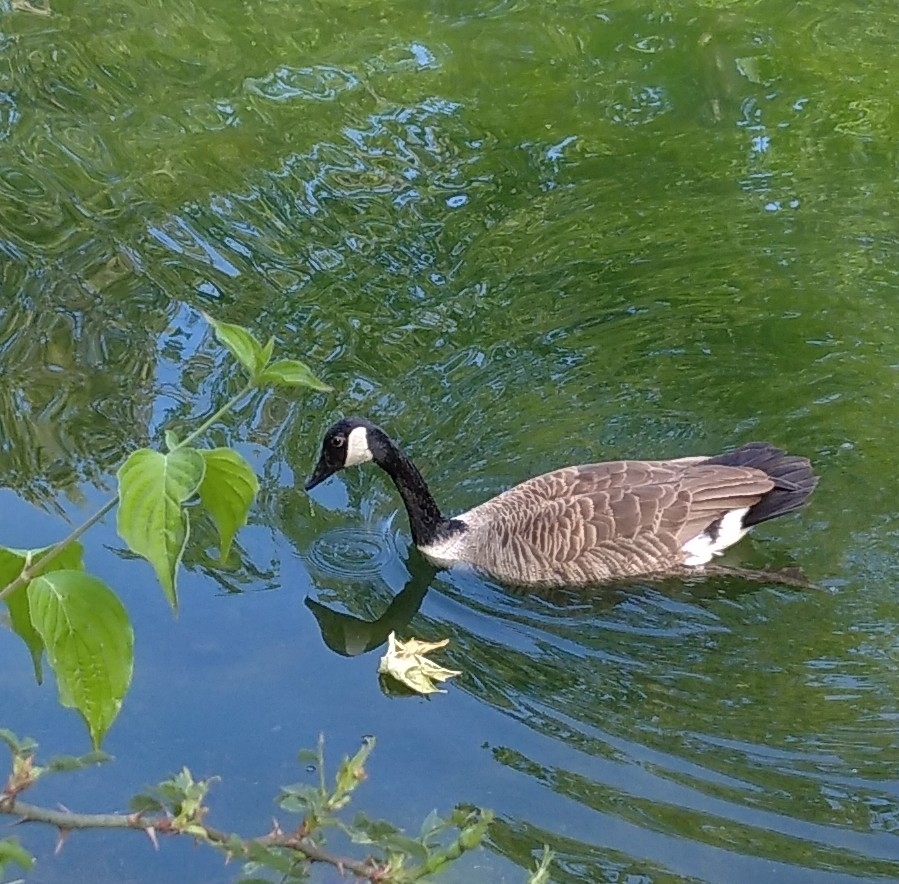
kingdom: Animalia
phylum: Chordata
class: Aves
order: Anseriformes
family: Anatidae
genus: Branta
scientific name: Branta canadensis
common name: Canada goose
